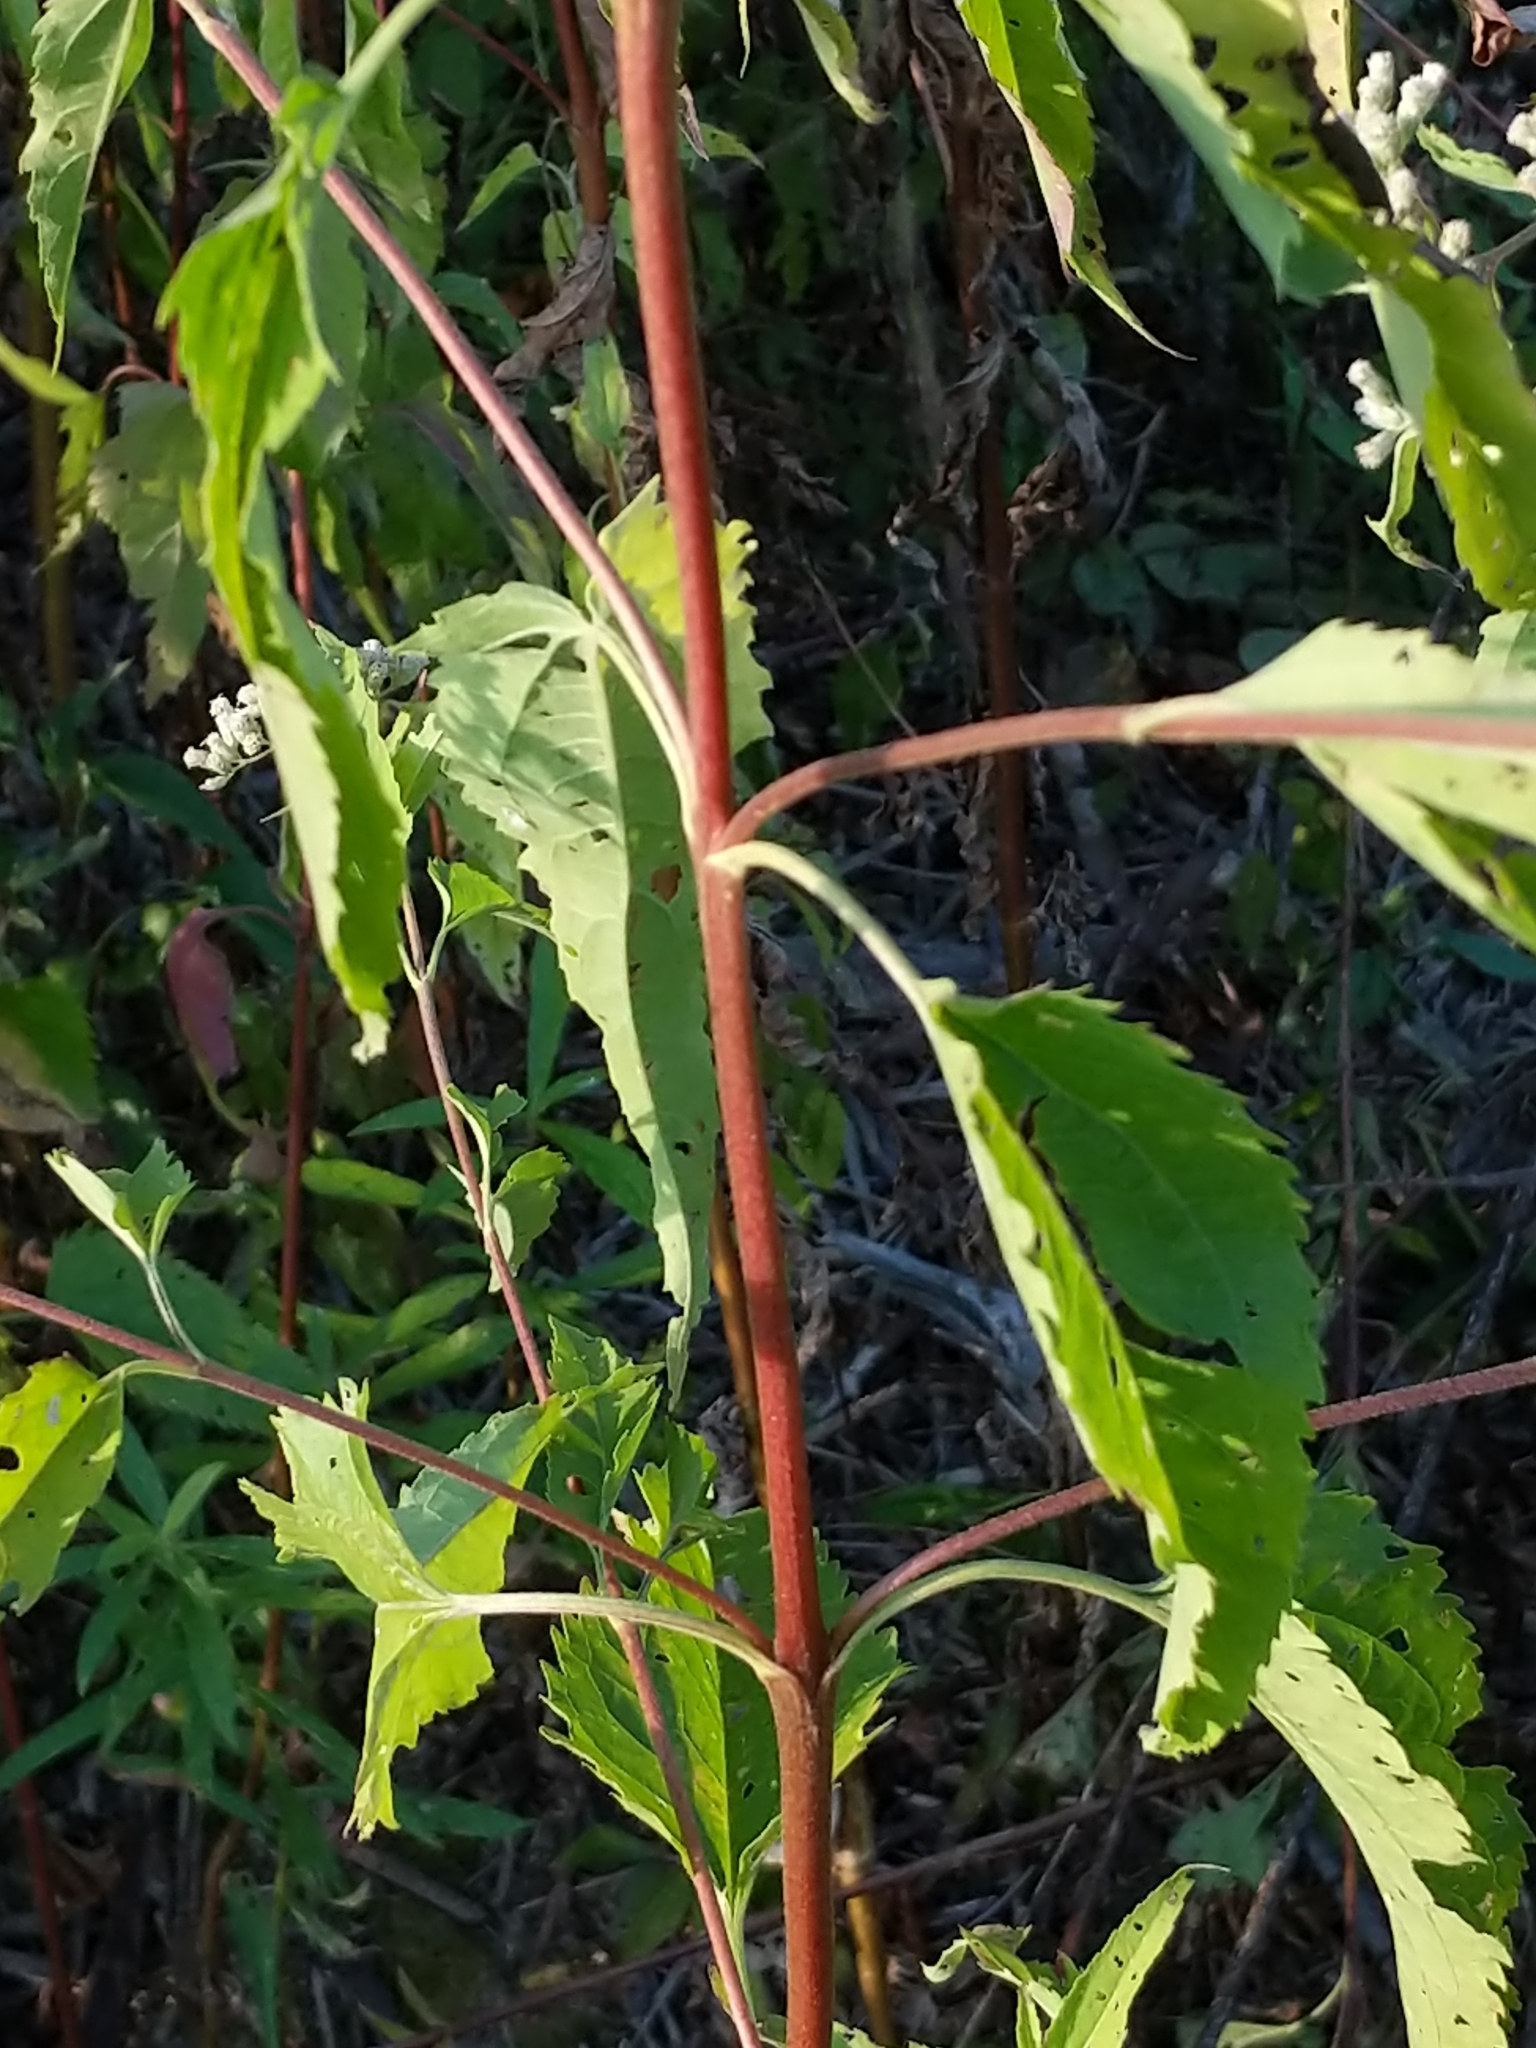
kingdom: Plantae
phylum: Tracheophyta
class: Magnoliopsida
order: Asterales
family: Asteraceae
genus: Eupatorium
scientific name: Eupatorium serotinum
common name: Late boneset
